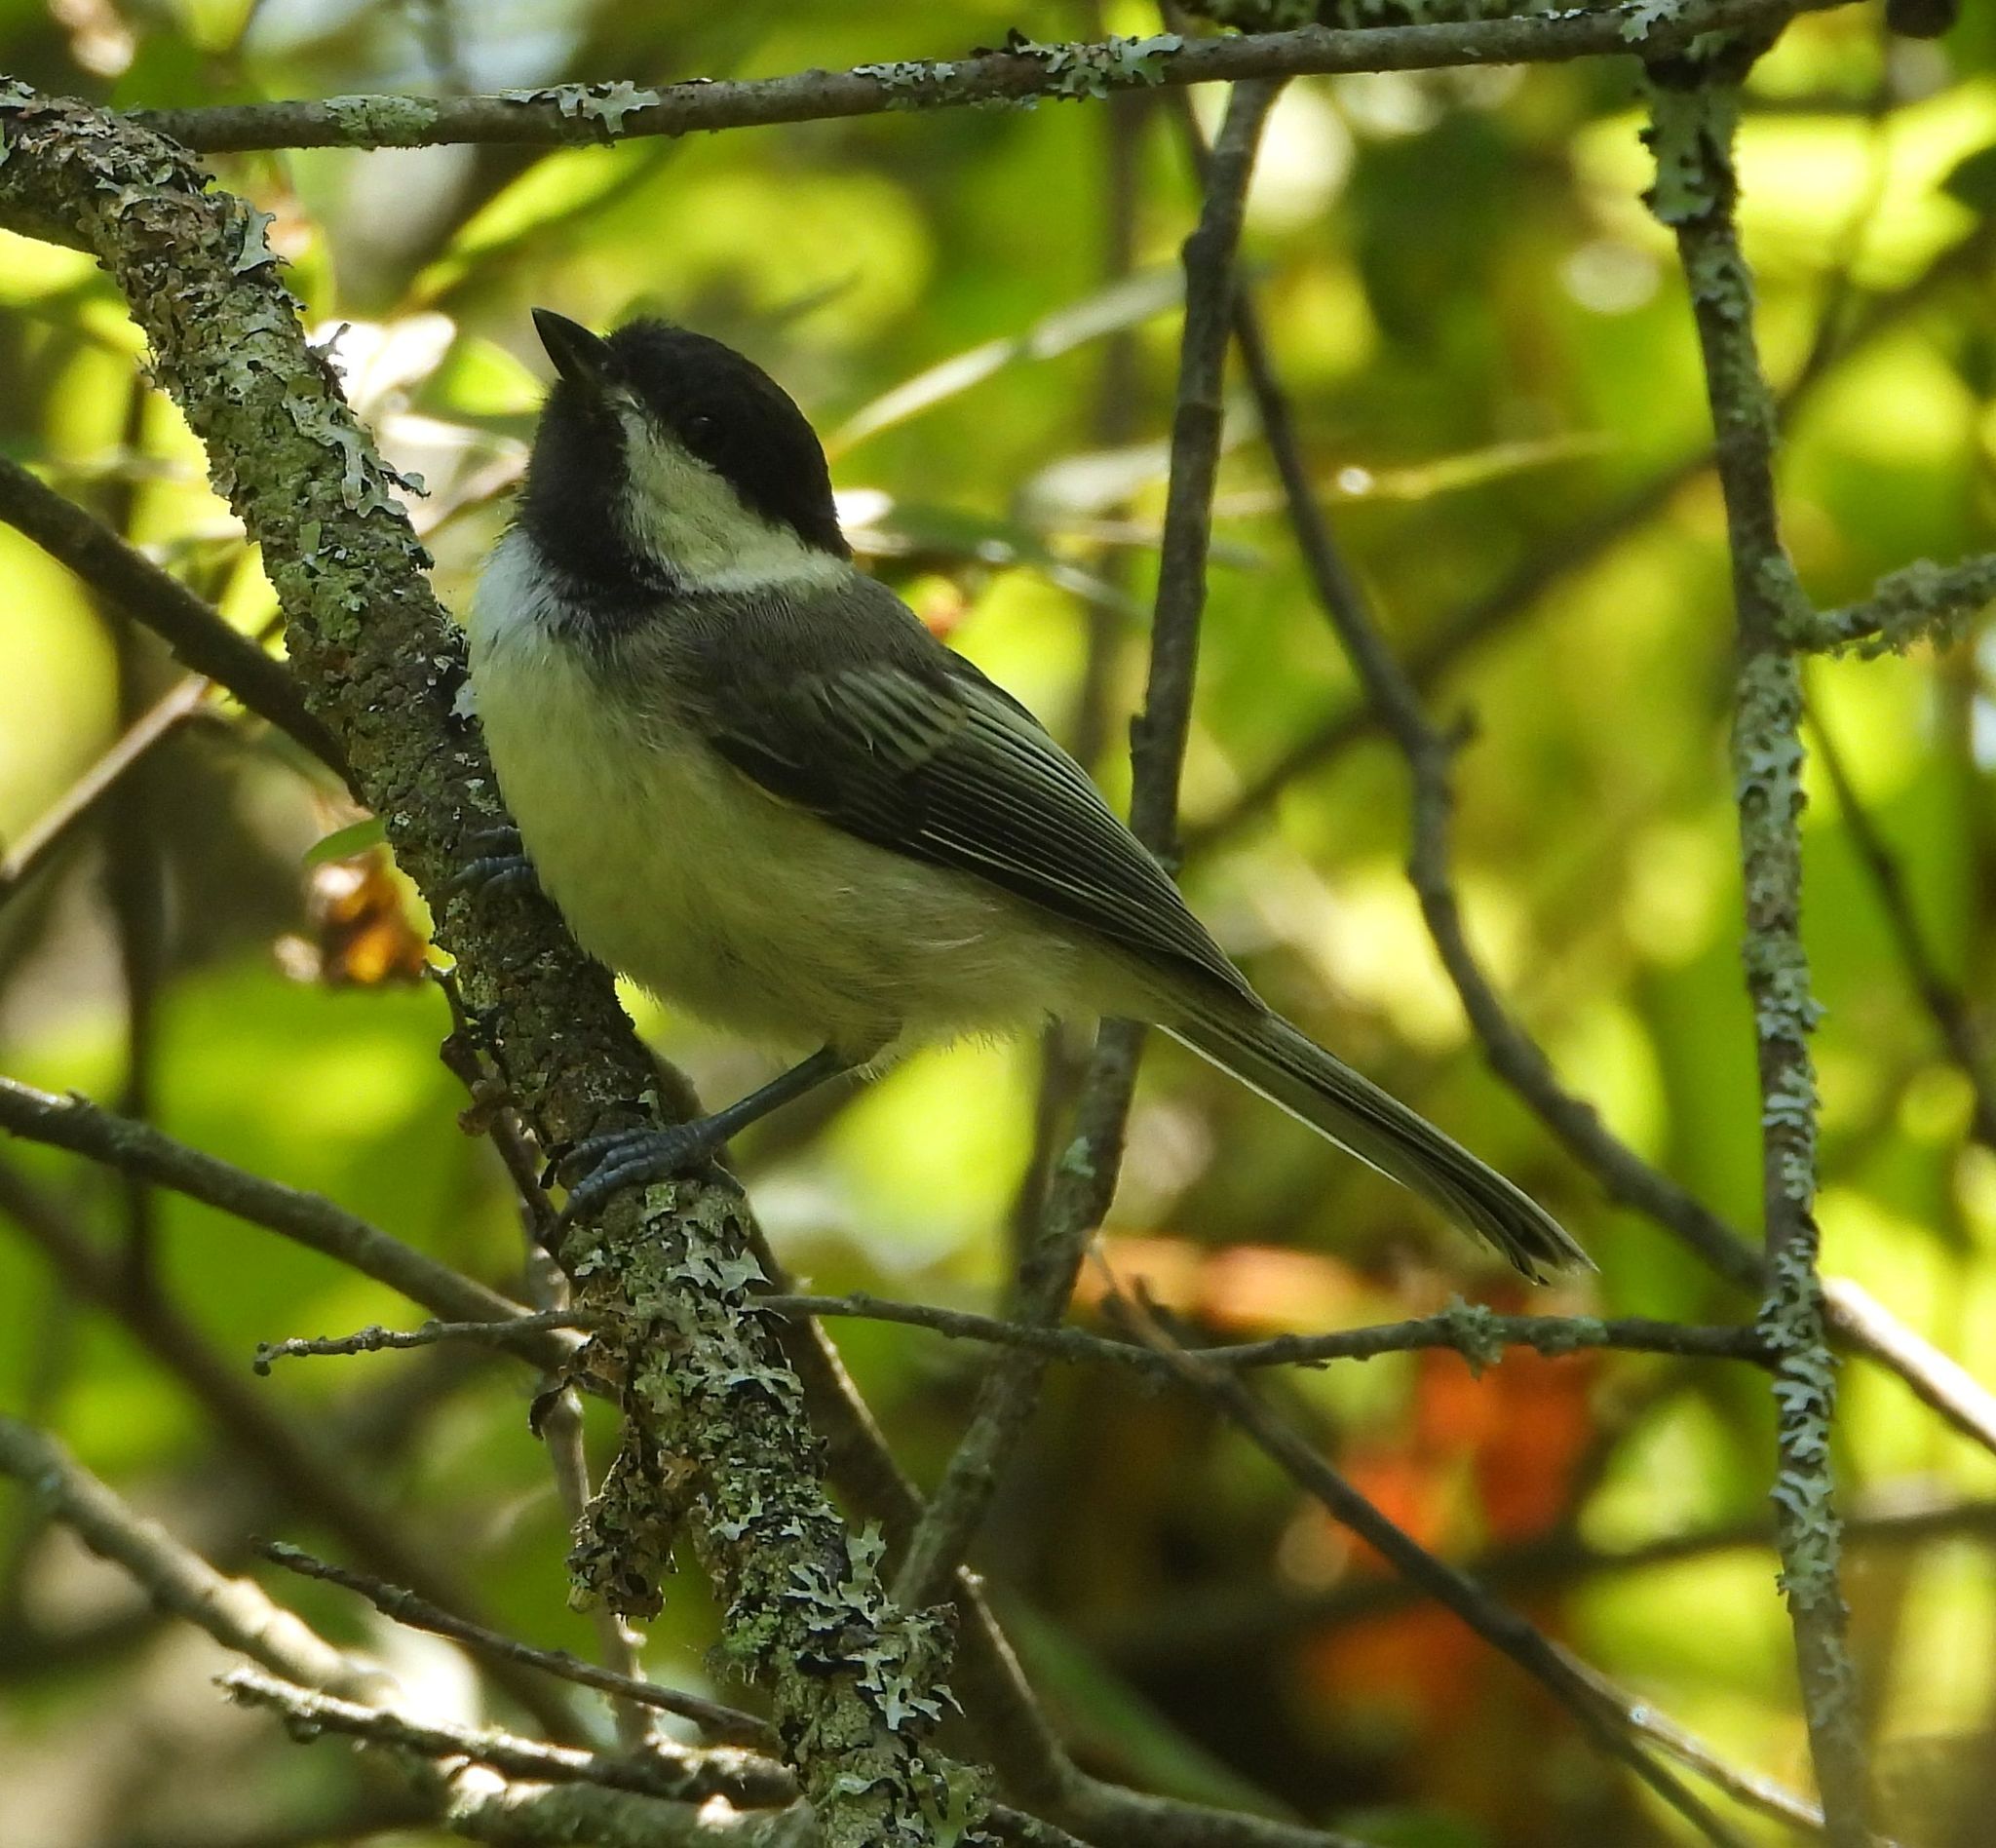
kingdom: Animalia
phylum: Chordata
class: Aves
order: Passeriformes
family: Paridae
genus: Poecile
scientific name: Poecile atricapillus
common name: Black-capped chickadee
